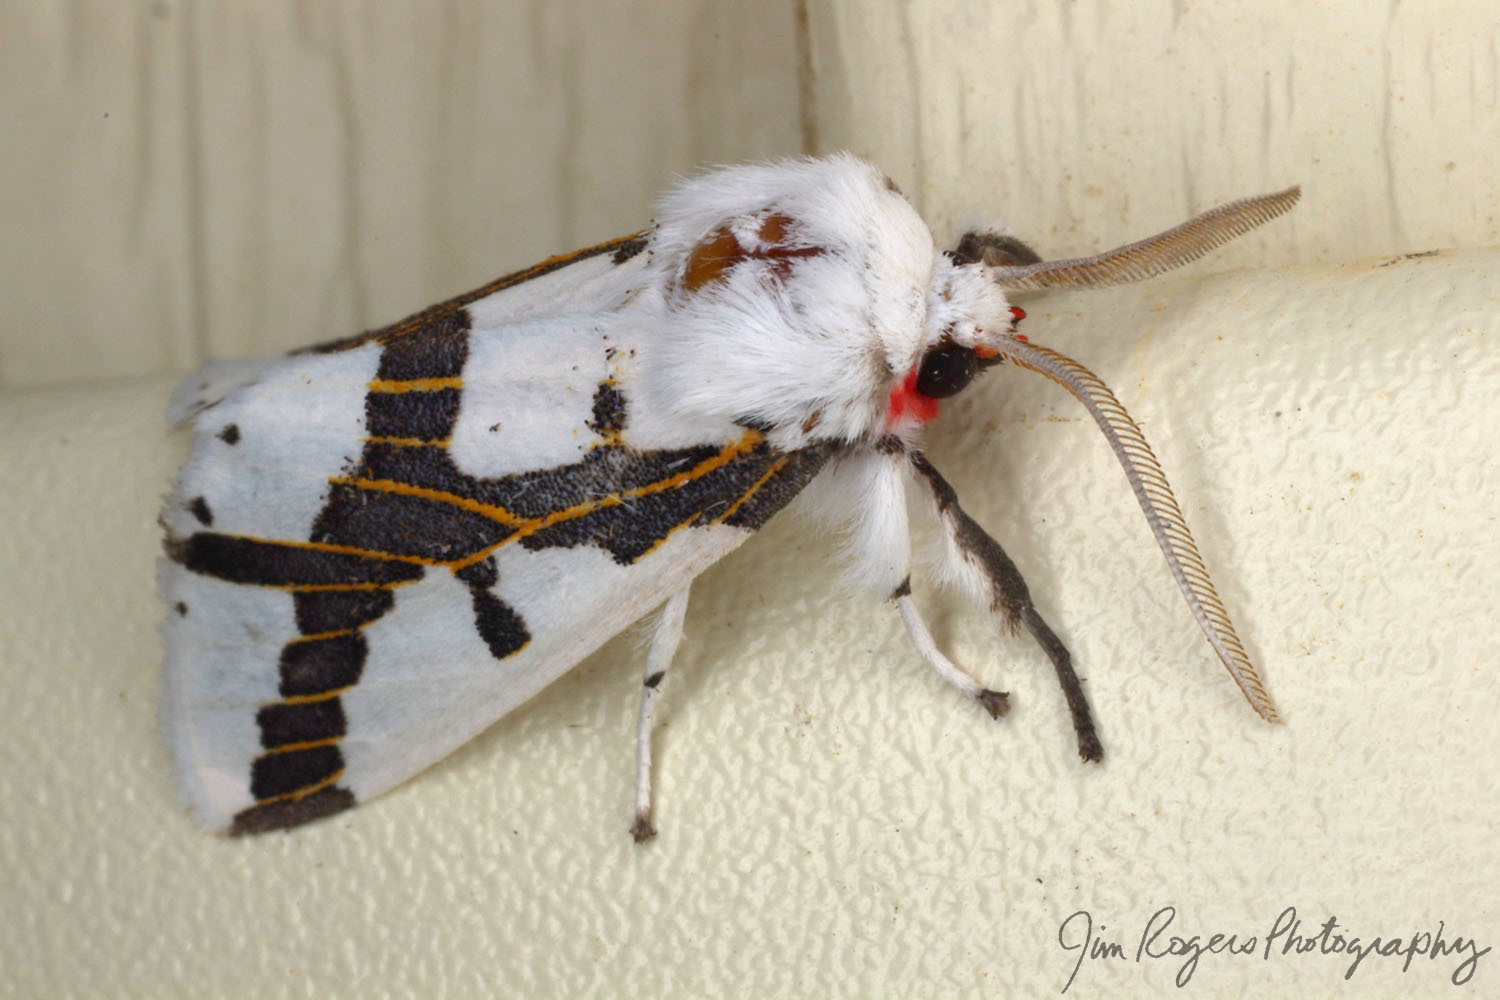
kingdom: Animalia
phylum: Arthropoda
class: Insecta
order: Lepidoptera
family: Erebidae
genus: Euerythra
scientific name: Euerythra phasma
